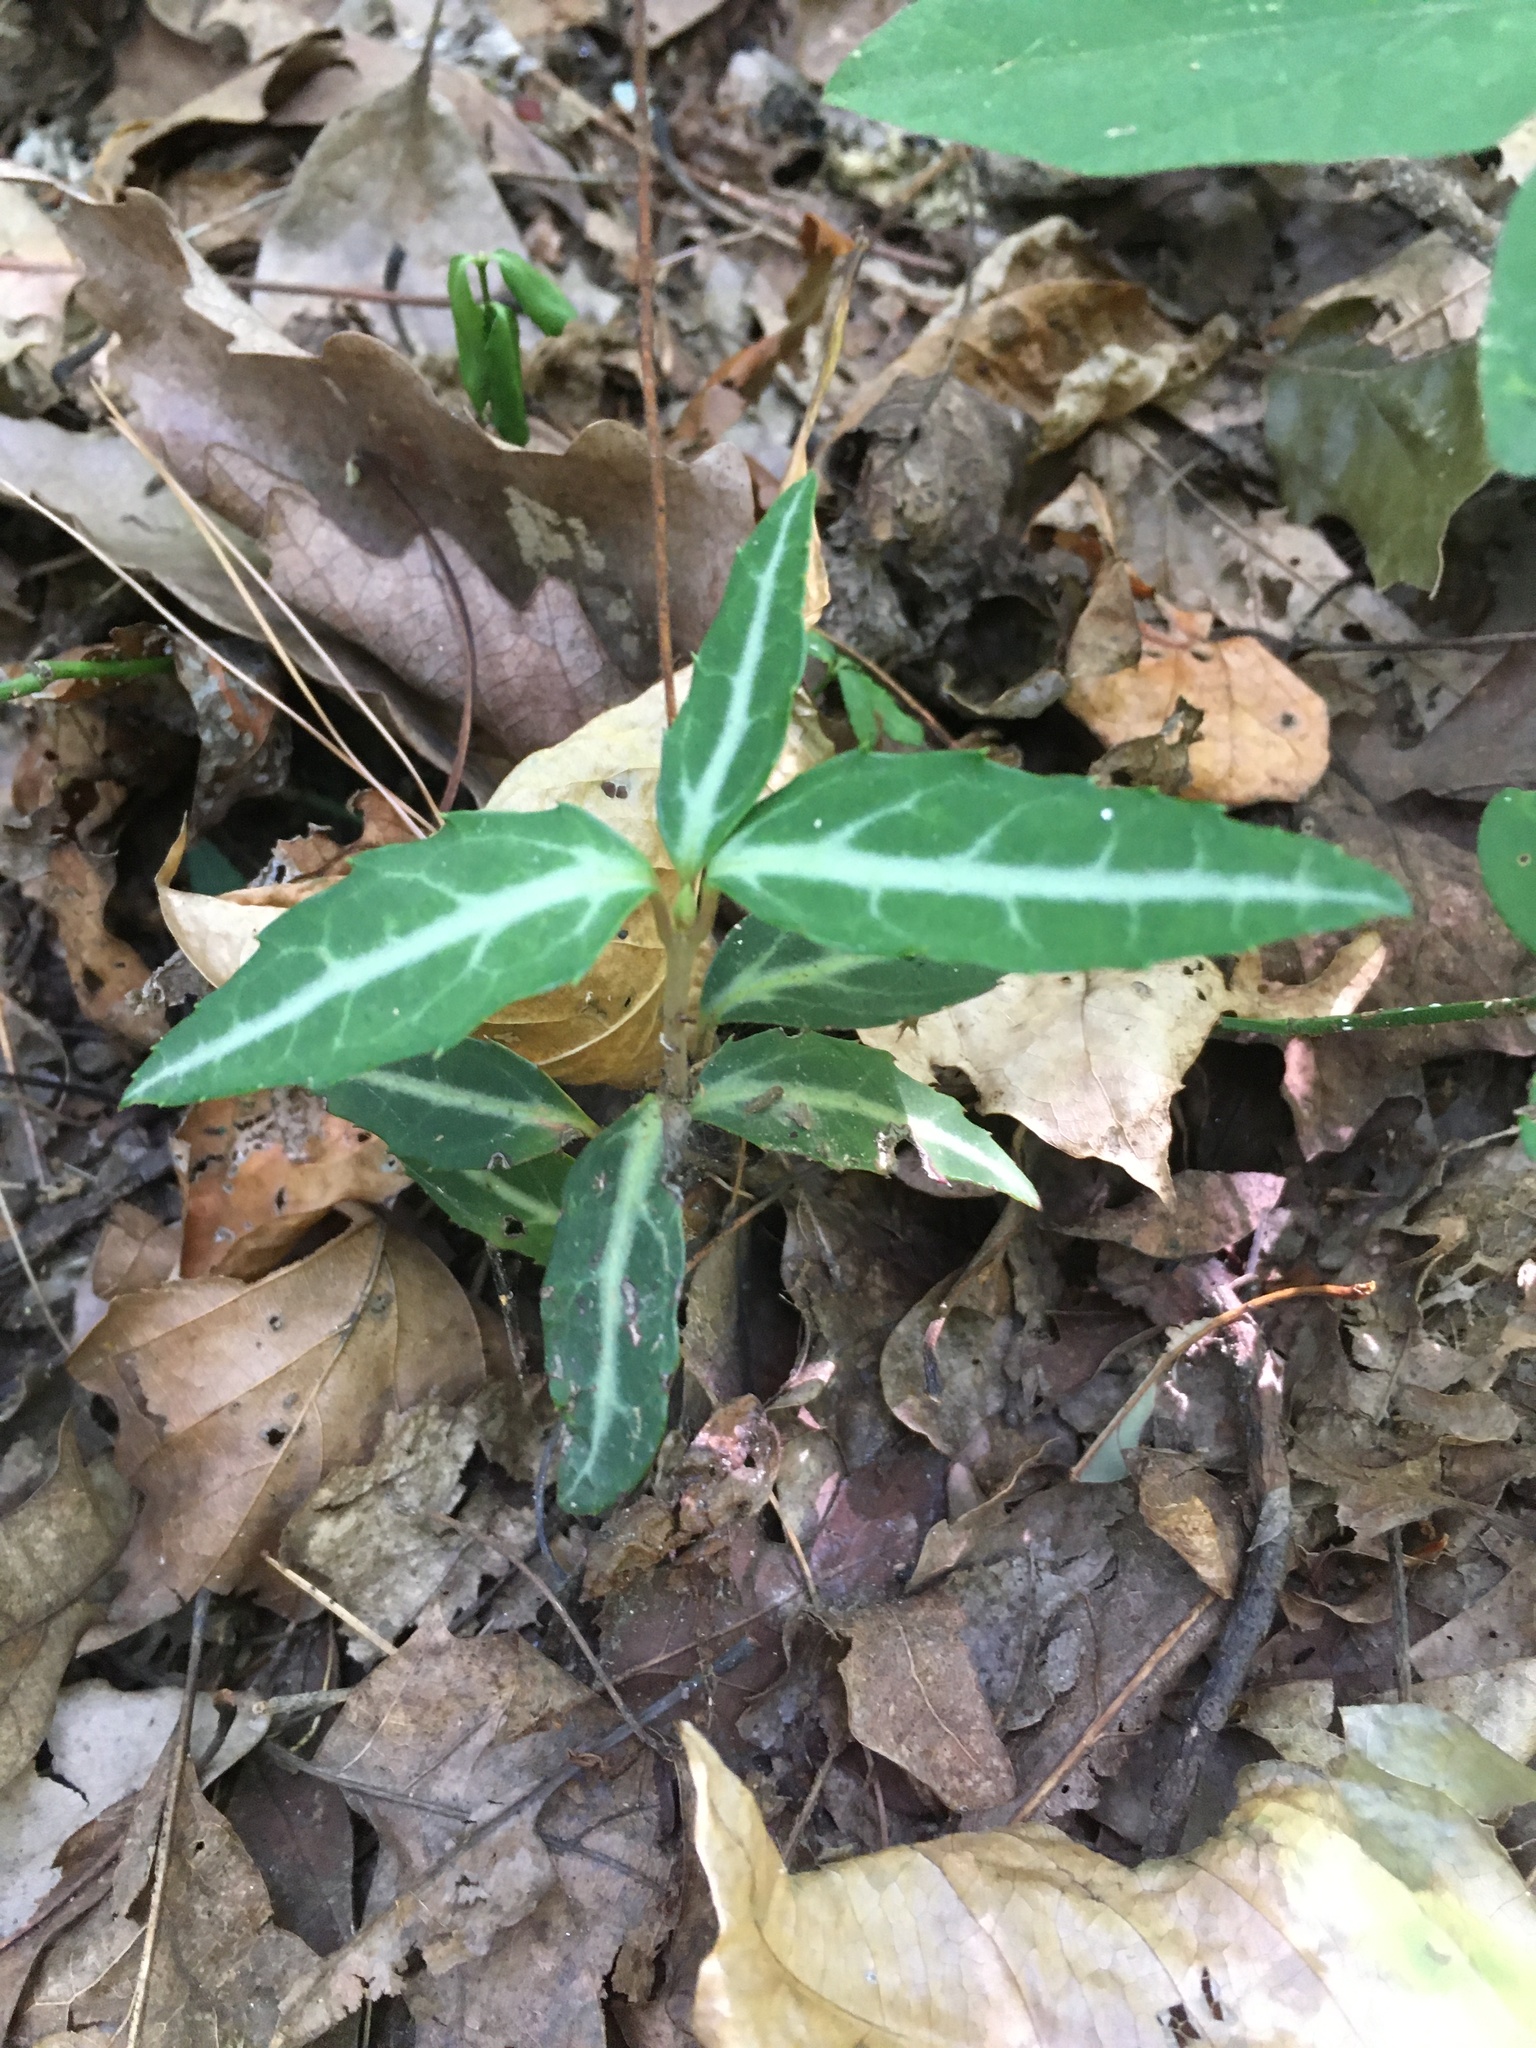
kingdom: Plantae
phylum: Tracheophyta
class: Magnoliopsida
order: Ericales
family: Ericaceae
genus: Chimaphila
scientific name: Chimaphila maculata
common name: Spotted pipsissewa
